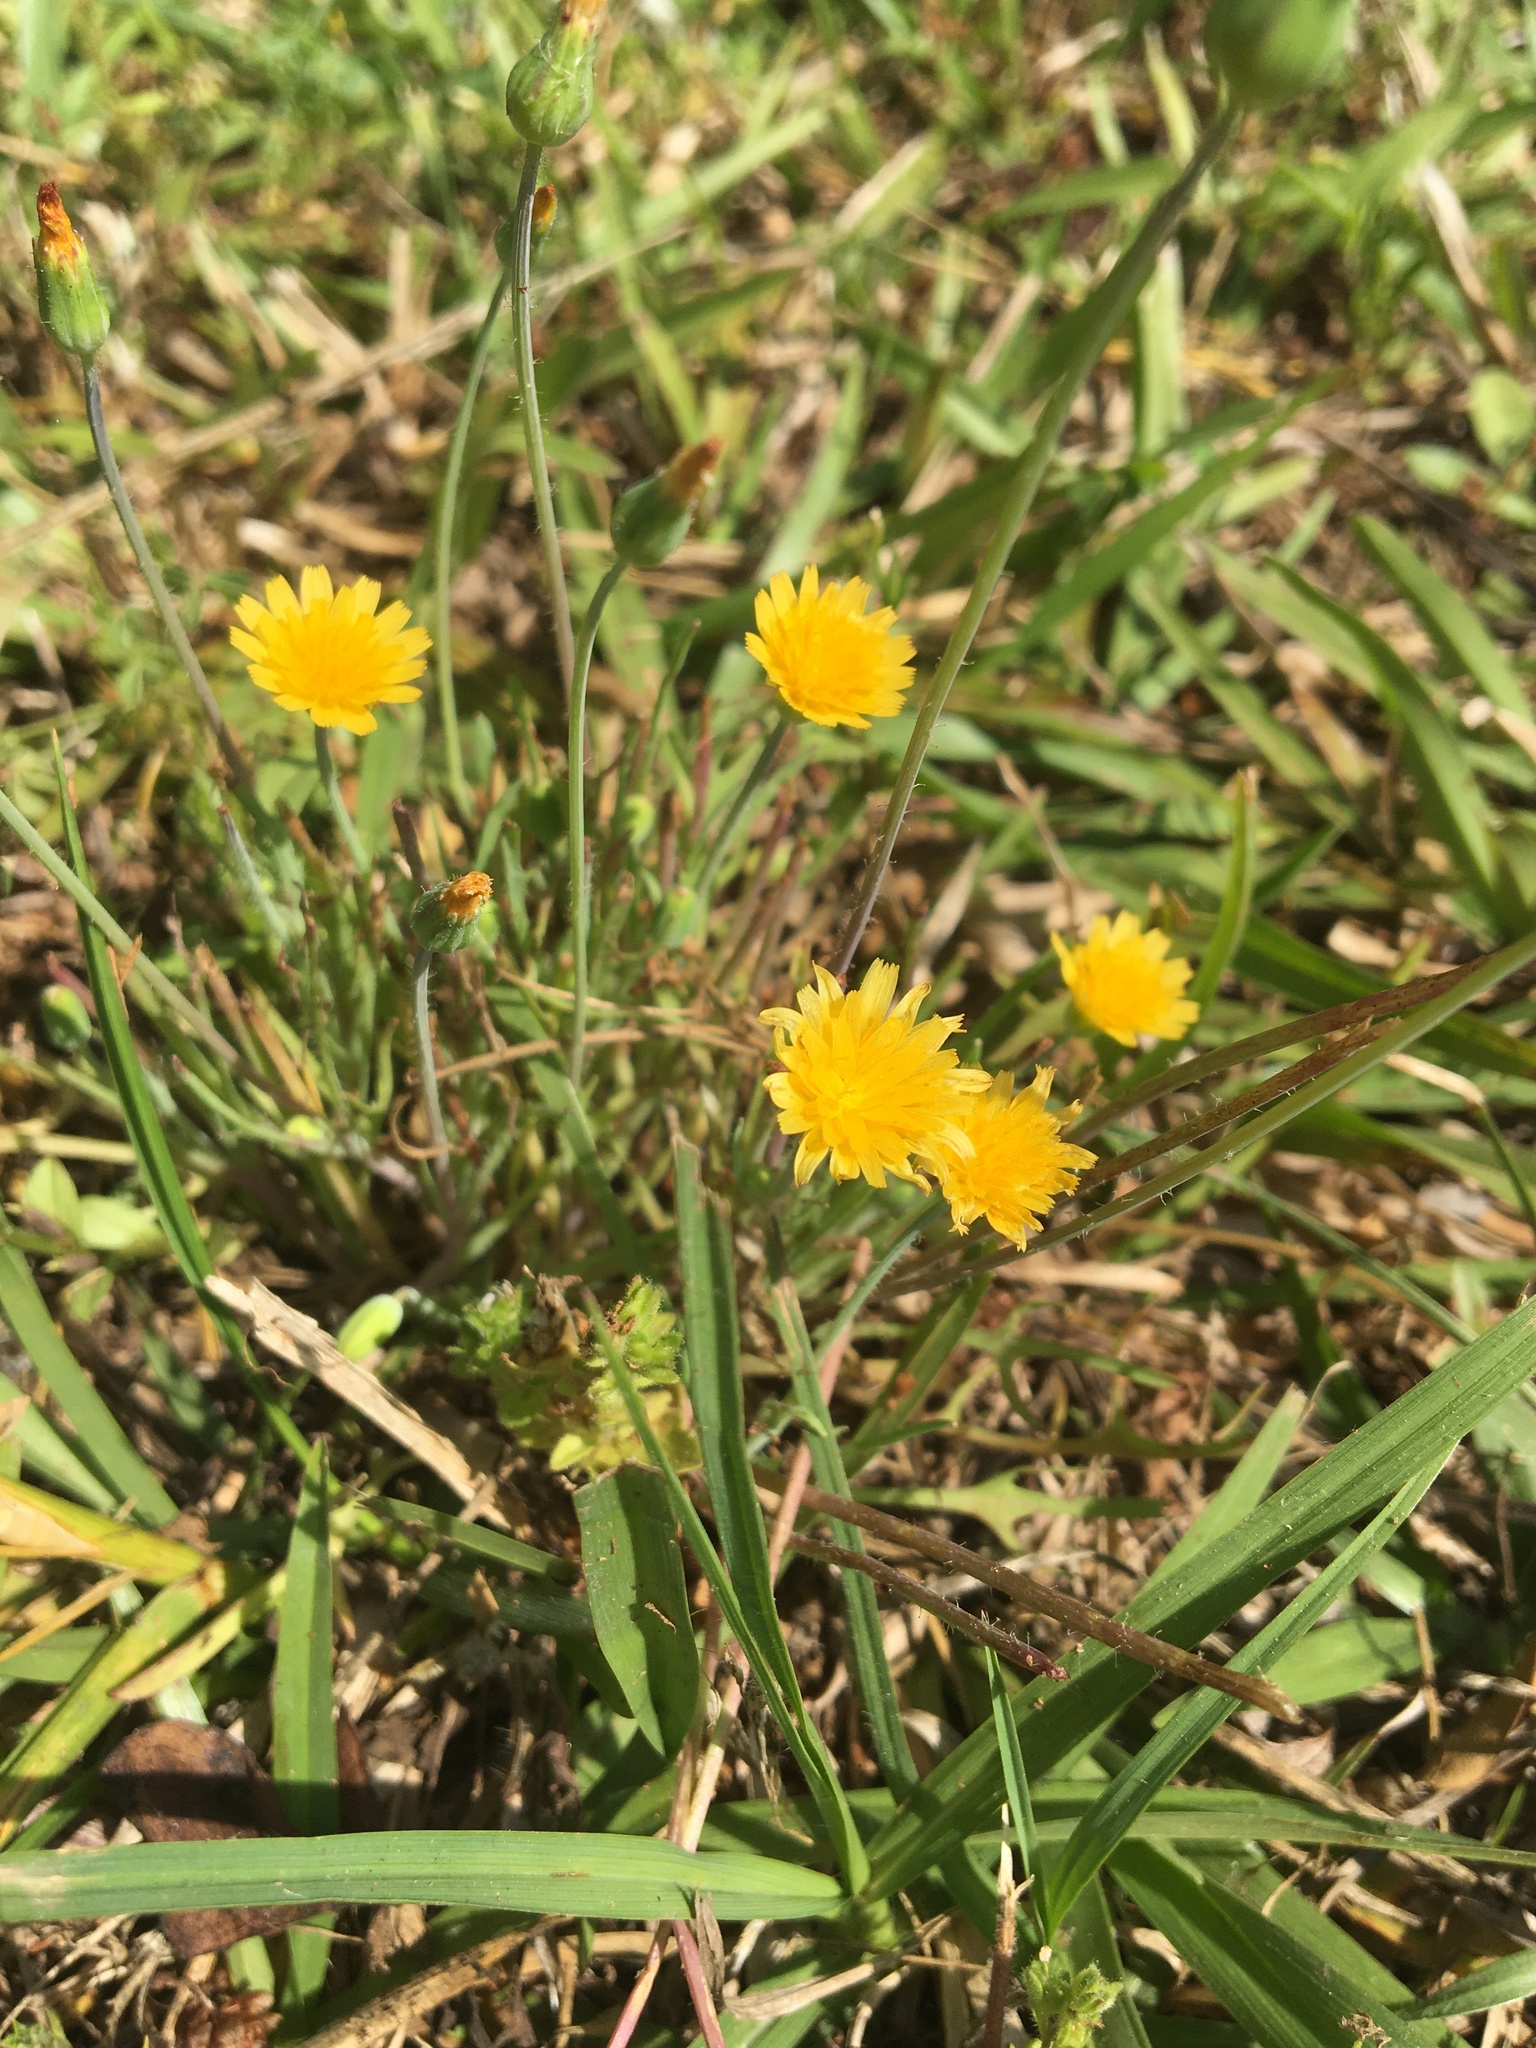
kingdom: Plantae
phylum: Tracheophyta
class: Magnoliopsida
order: Asterales
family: Asteraceae
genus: Krigia
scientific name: Krigia virginica
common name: Virginia dwarf-dandelion
